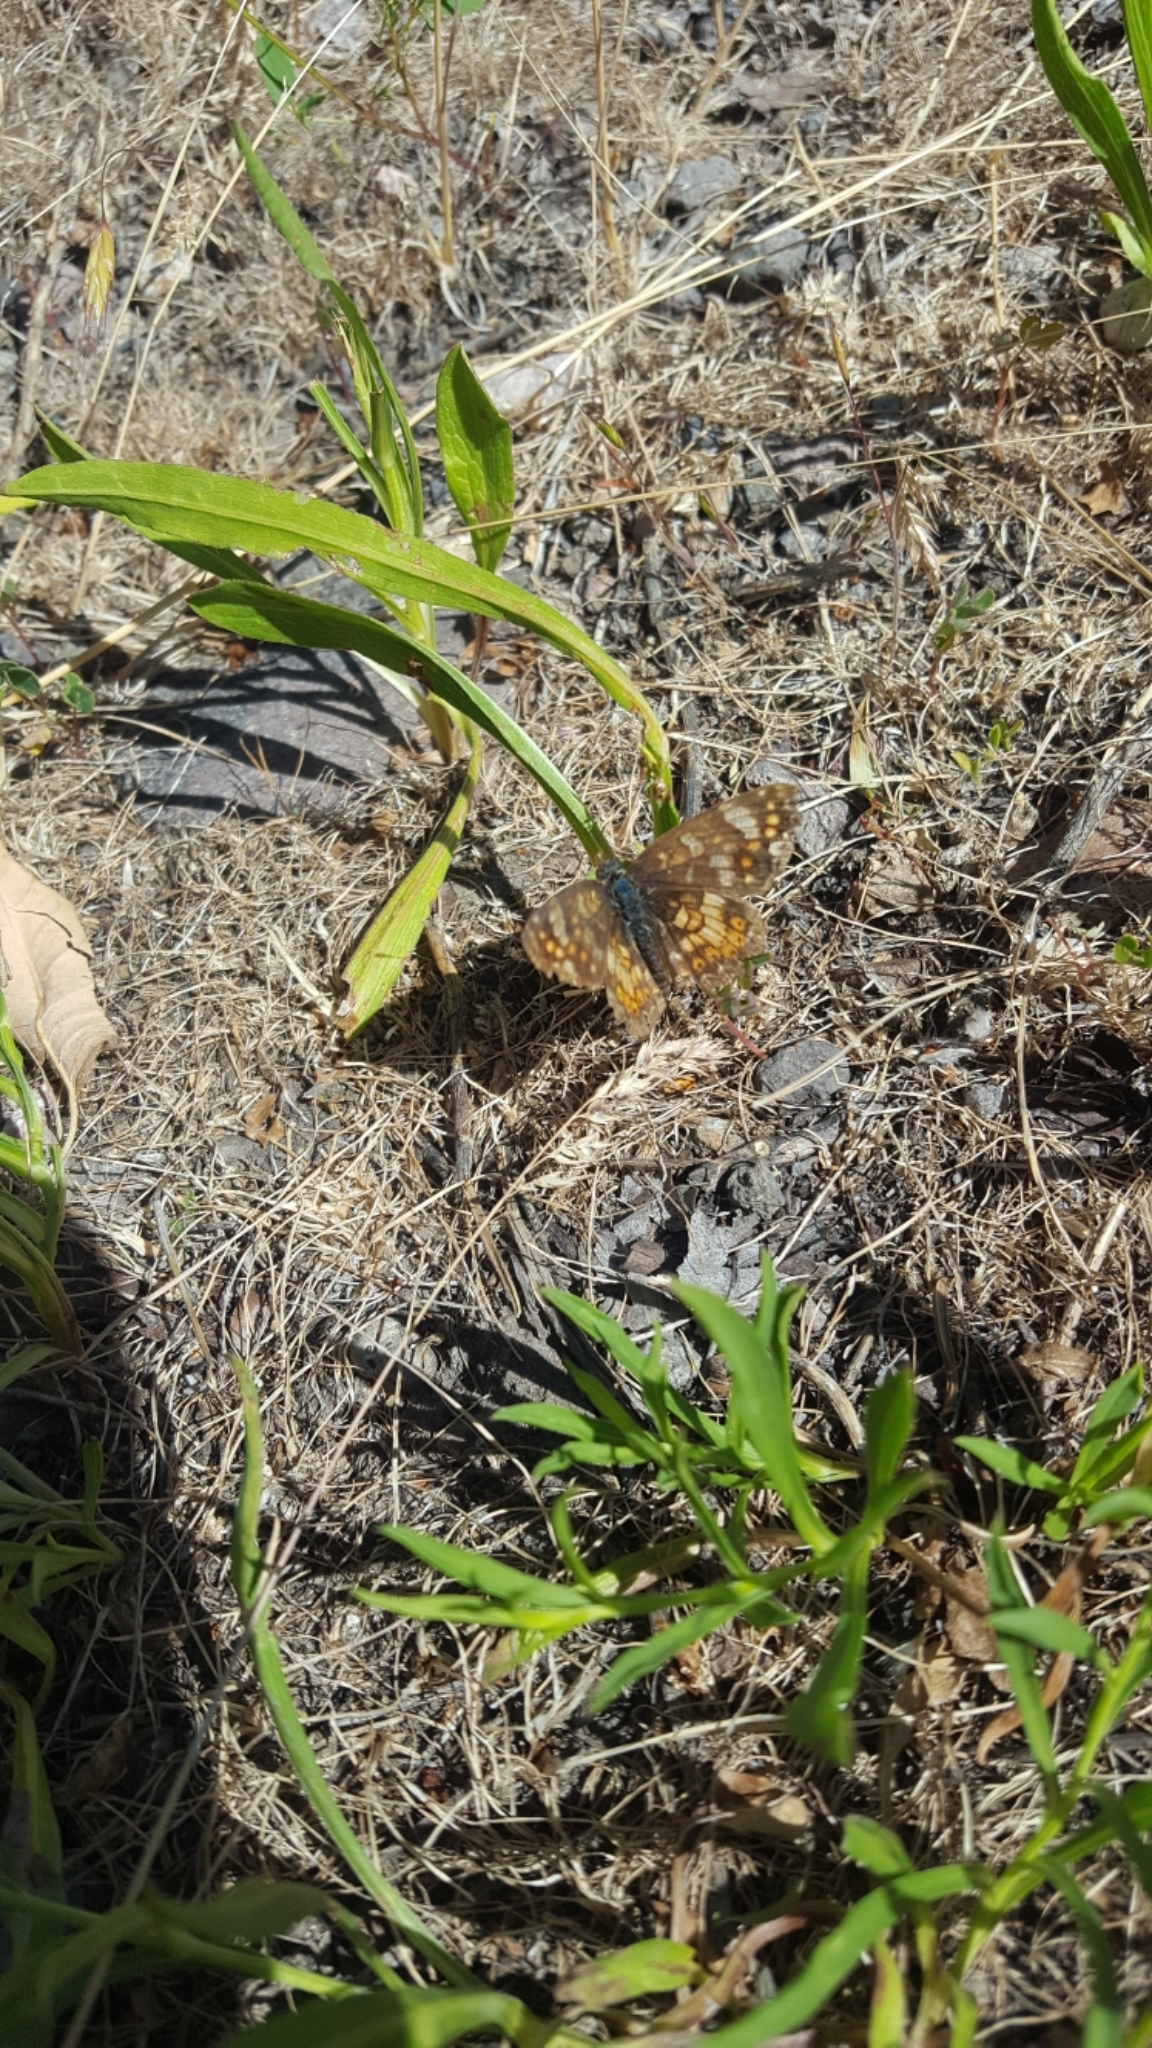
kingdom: Animalia
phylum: Arthropoda
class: Insecta
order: Lepidoptera
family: Nymphalidae
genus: Phyciodes
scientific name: Phyciodes tharos
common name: Pearl crescent
